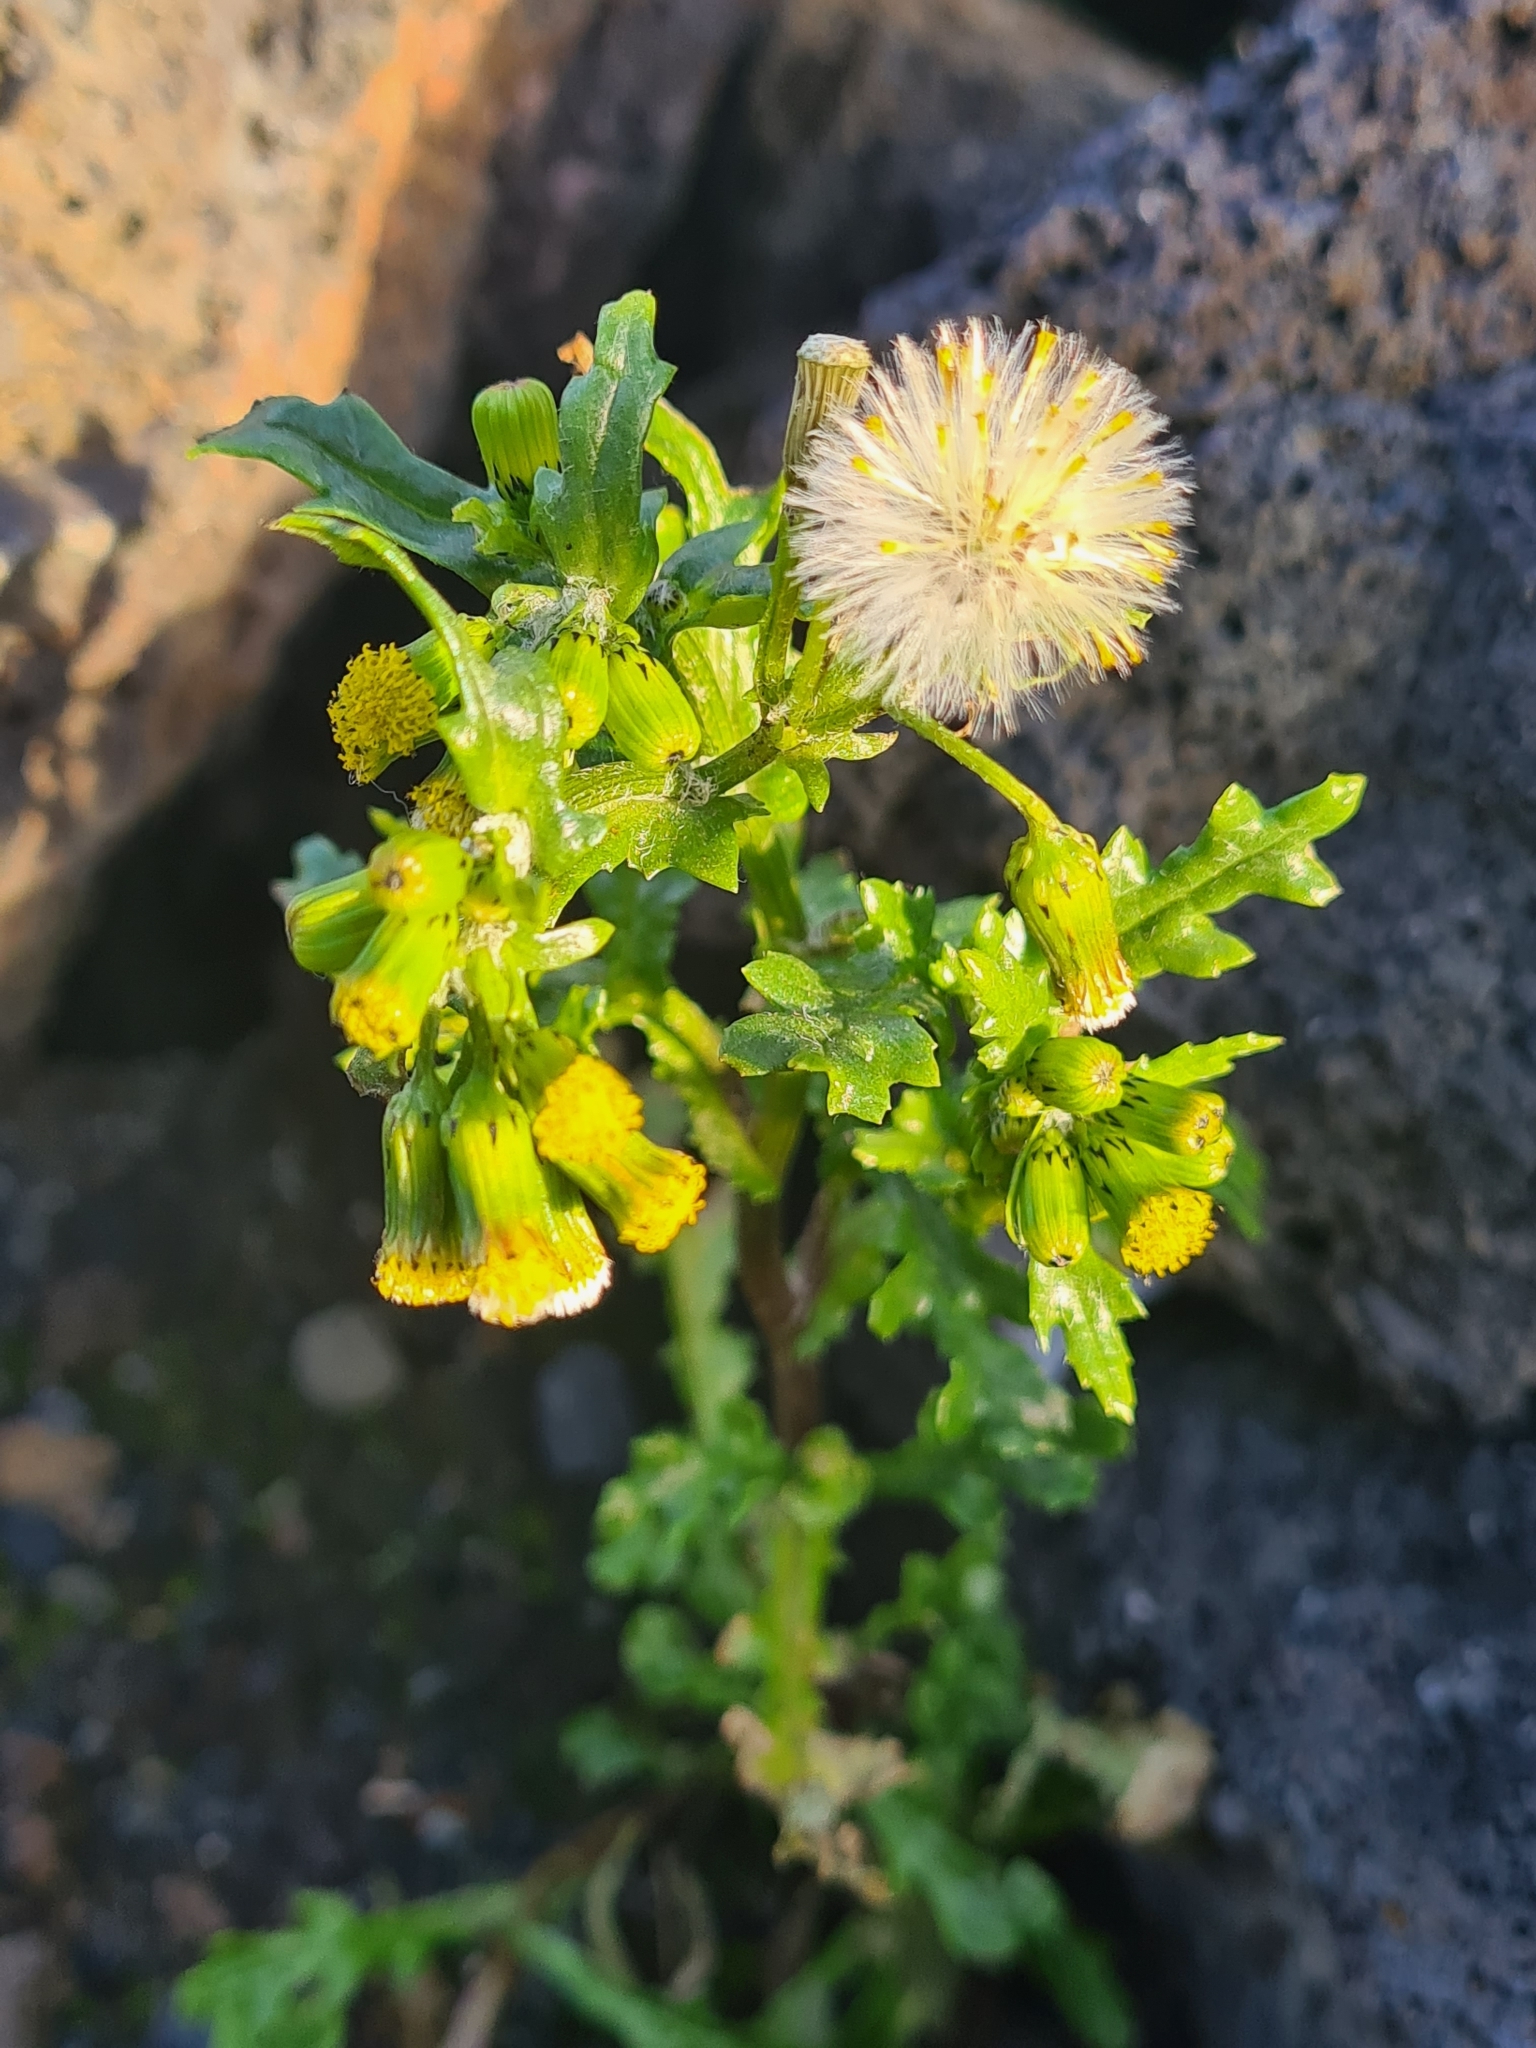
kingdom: Plantae
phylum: Tracheophyta
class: Magnoliopsida
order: Asterales
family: Asteraceae
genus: Senecio
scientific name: Senecio vulgaris
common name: Old-man-in-the-spring
